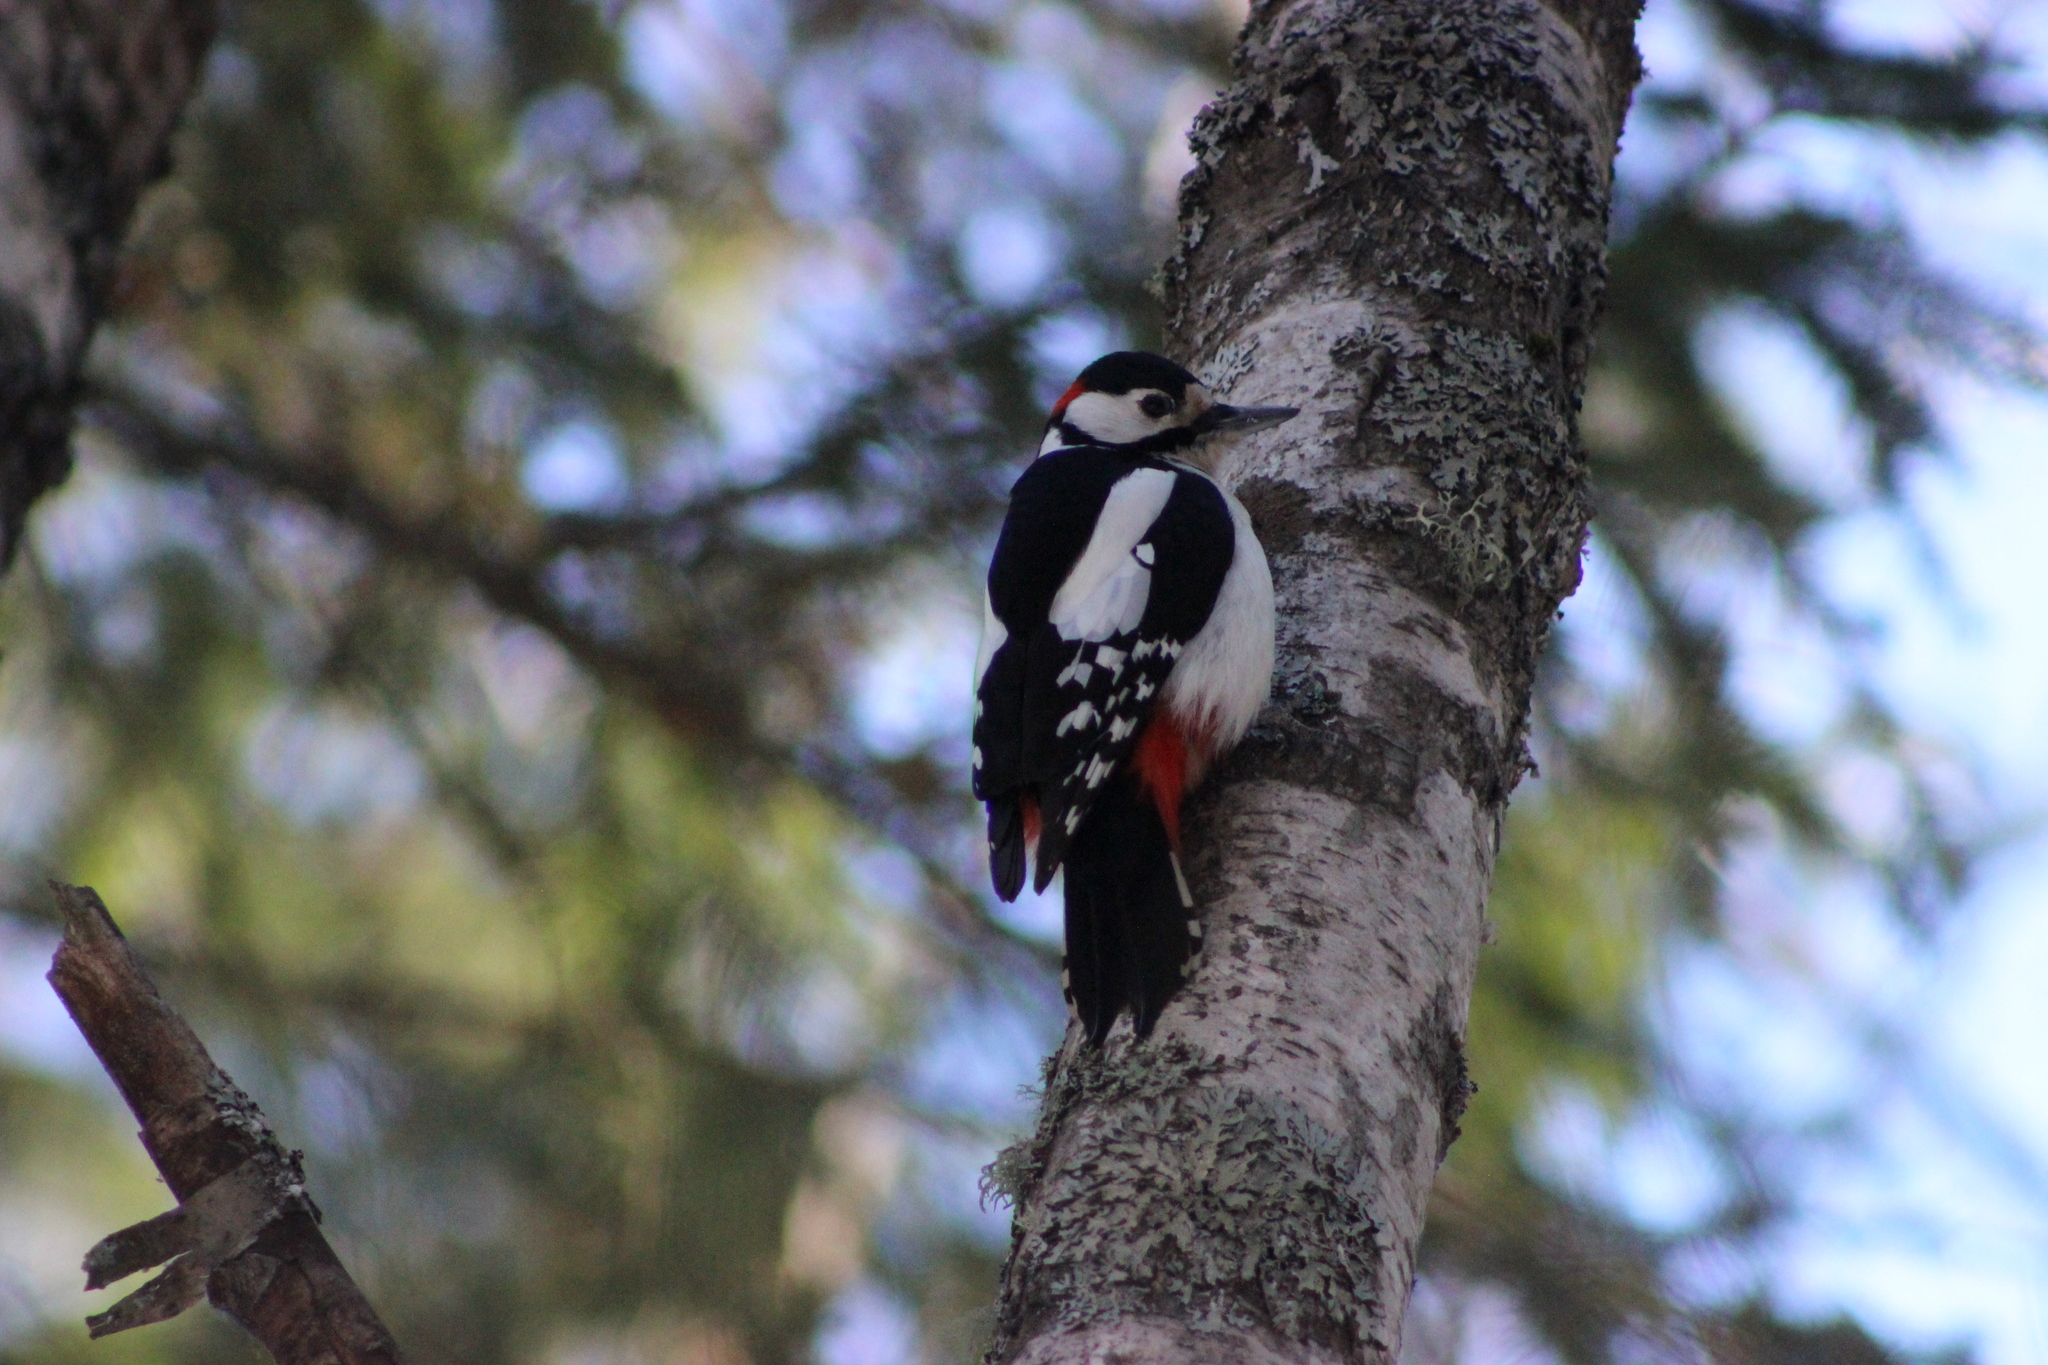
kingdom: Animalia
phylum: Chordata
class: Aves
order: Piciformes
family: Picidae
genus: Dendrocopos
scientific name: Dendrocopos major
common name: Great spotted woodpecker
